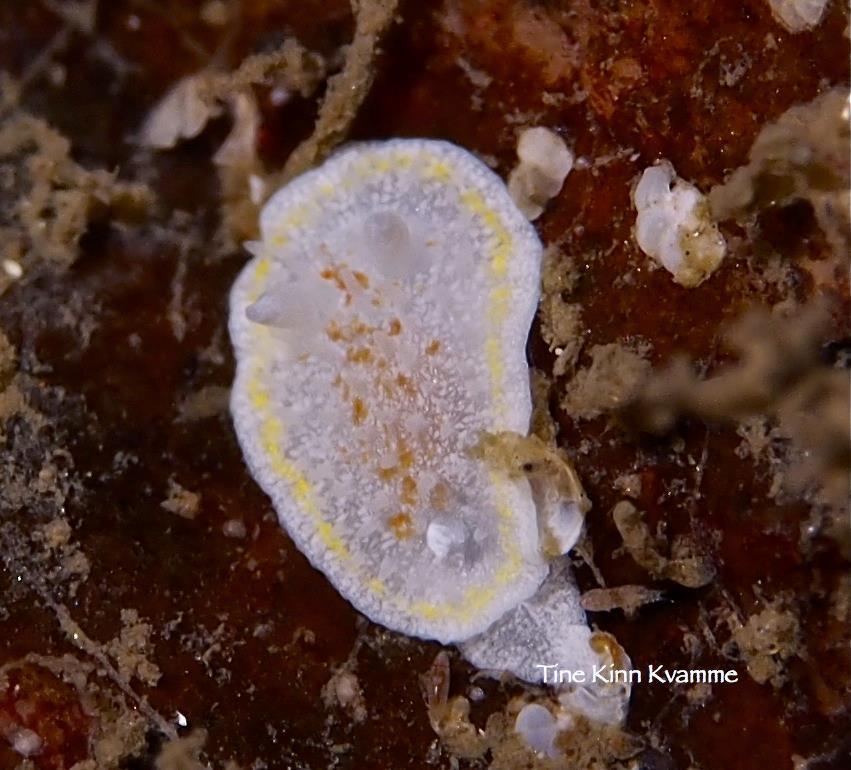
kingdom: Animalia
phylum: Mollusca
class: Gastropoda
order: Nudibranchia
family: Calycidorididae
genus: Diaphorodoris
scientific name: Diaphorodoris luteocincta
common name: Fried egg nudibranch
